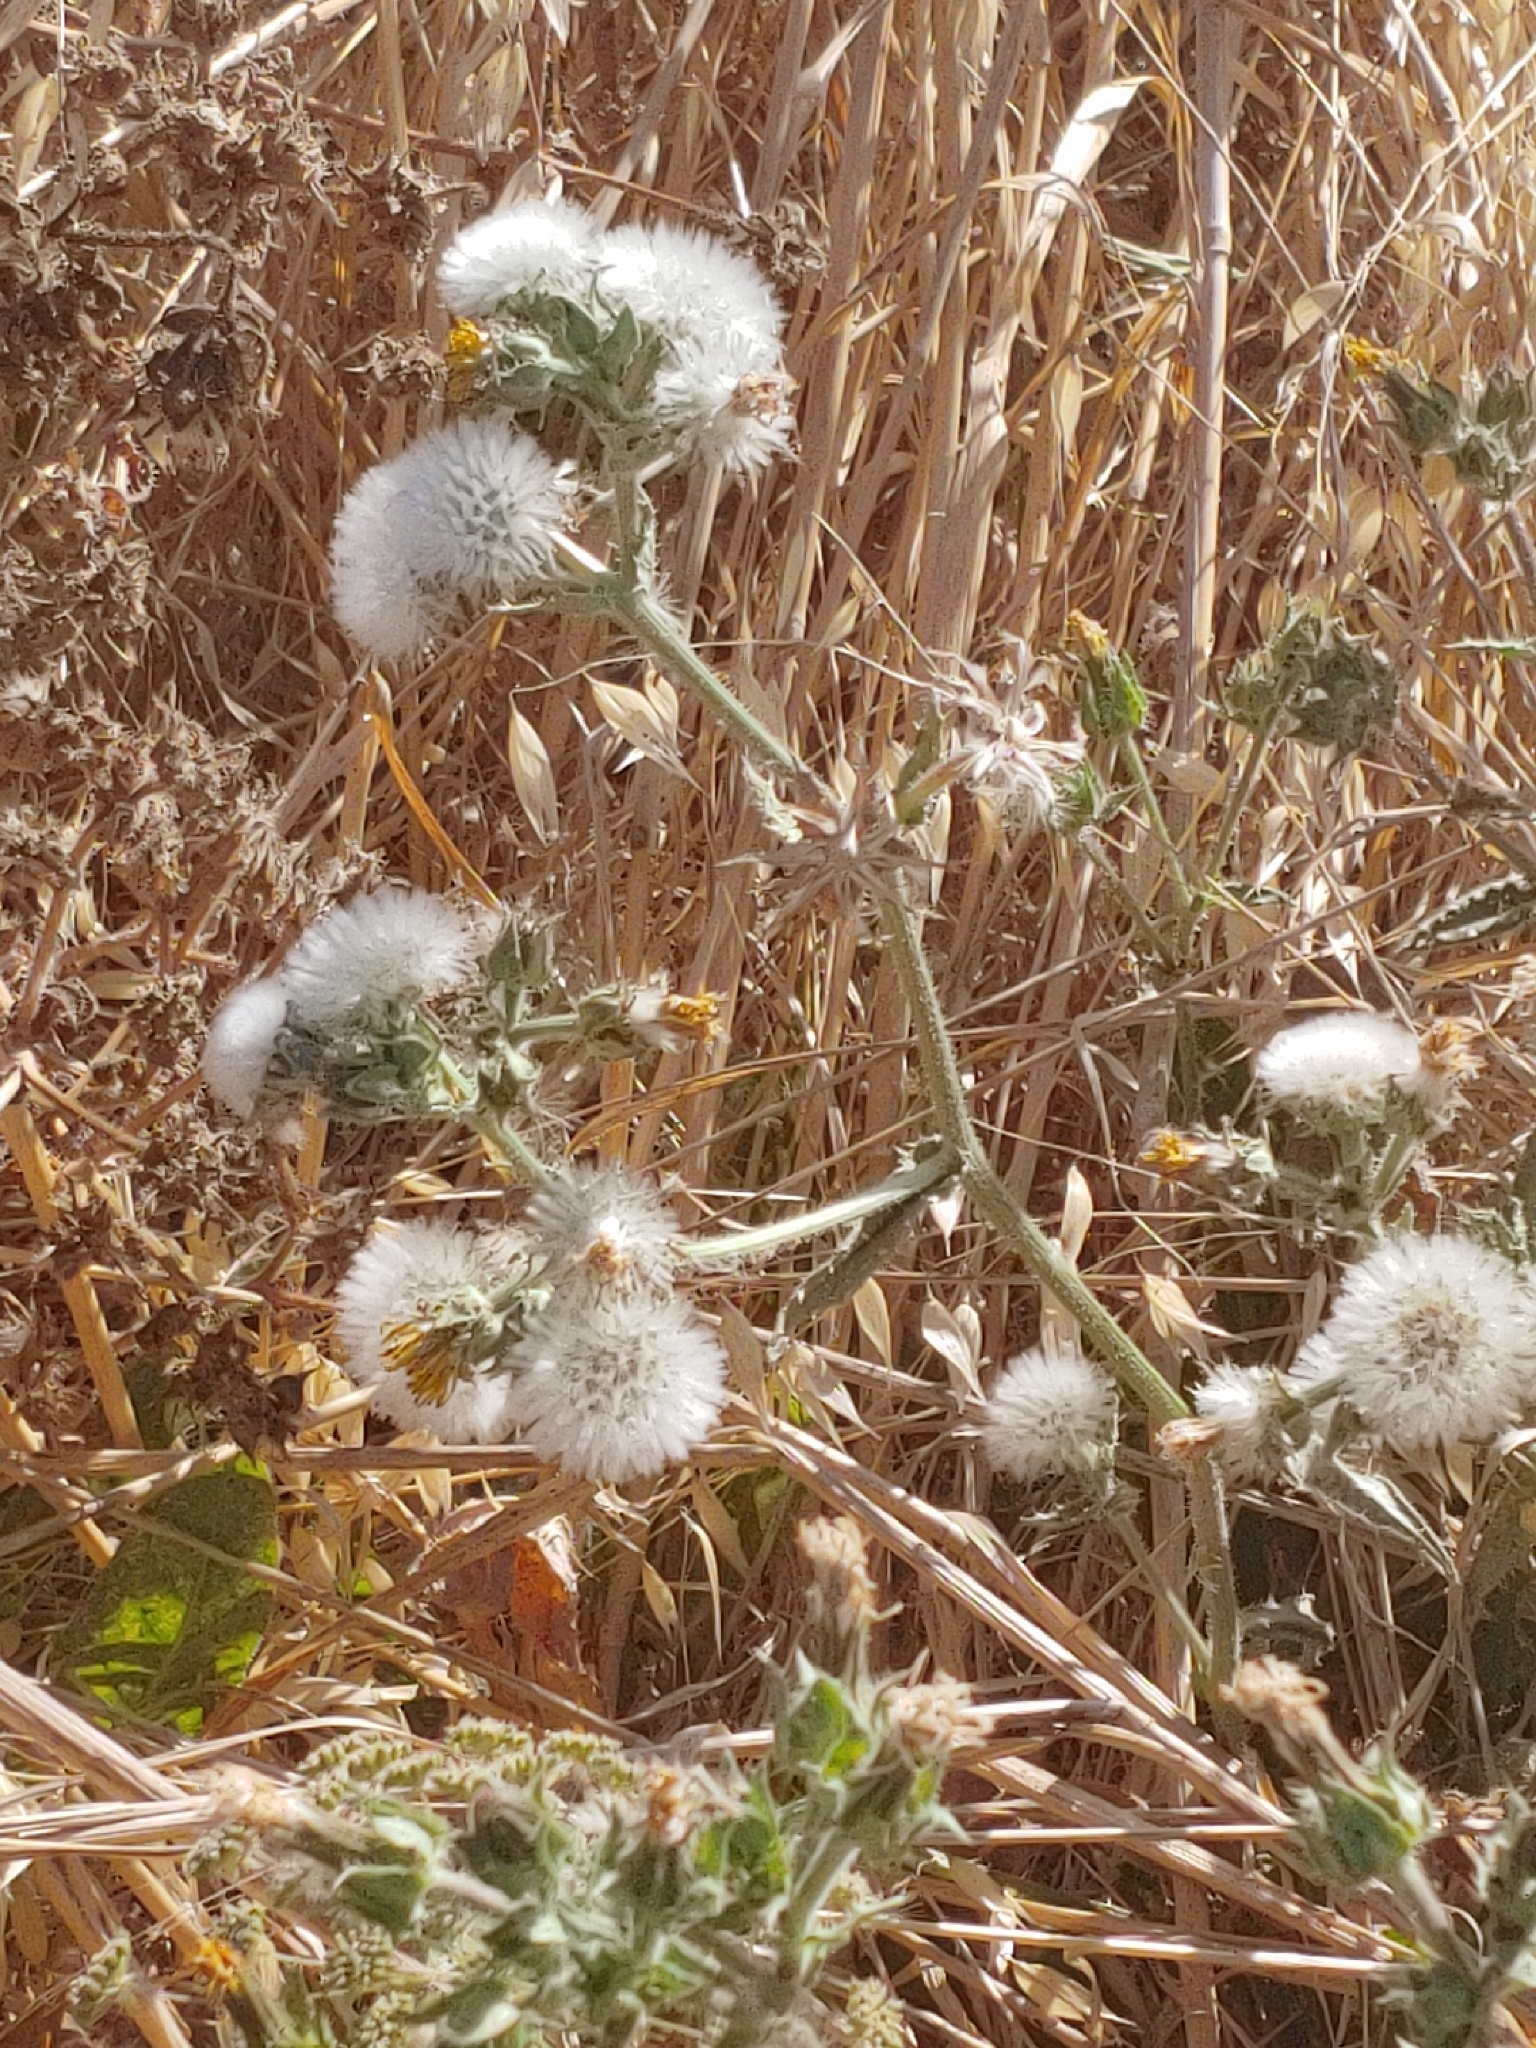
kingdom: Plantae
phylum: Tracheophyta
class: Magnoliopsida
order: Asterales
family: Asteraceae
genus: Helminthotheca
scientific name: Helminthotheca echioides
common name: Ox-tongue
